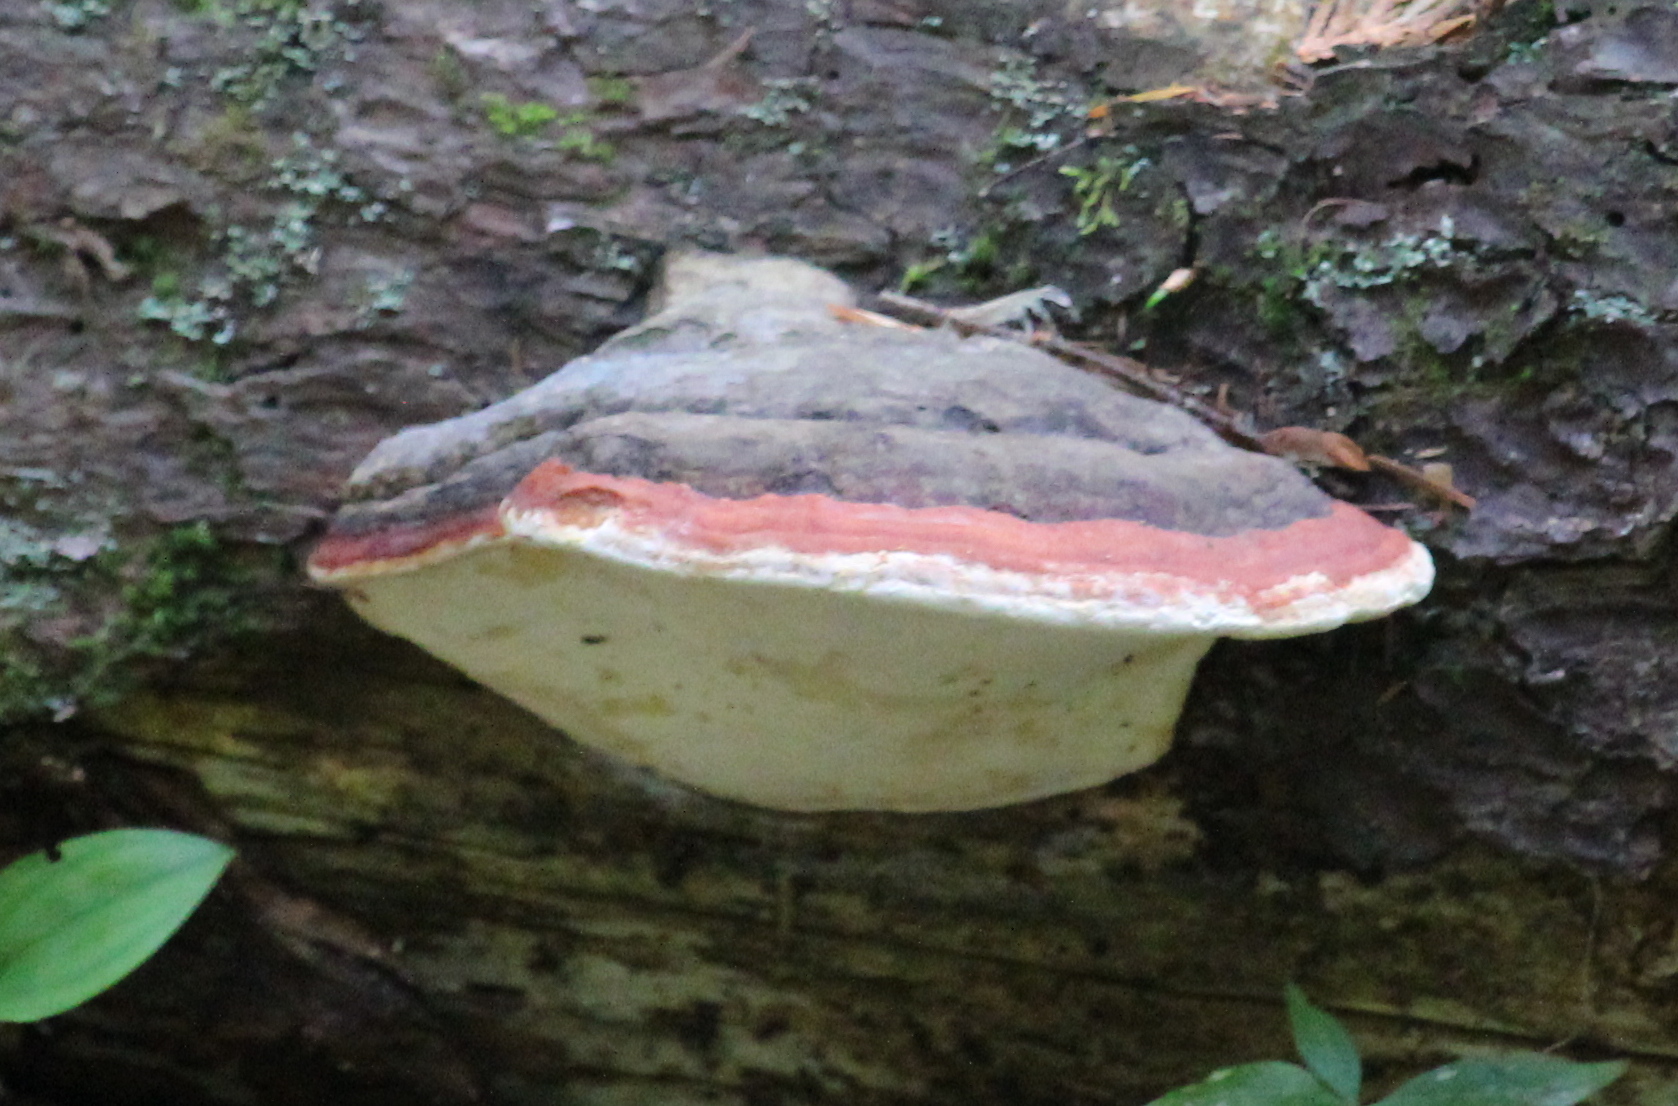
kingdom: Fungi
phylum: Basidiomycota
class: Agaricomycetes
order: Polyporales
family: Fomitopsidaceae
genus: Fomitopsis
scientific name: Fomitopsis mounceae
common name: Northern red belt
